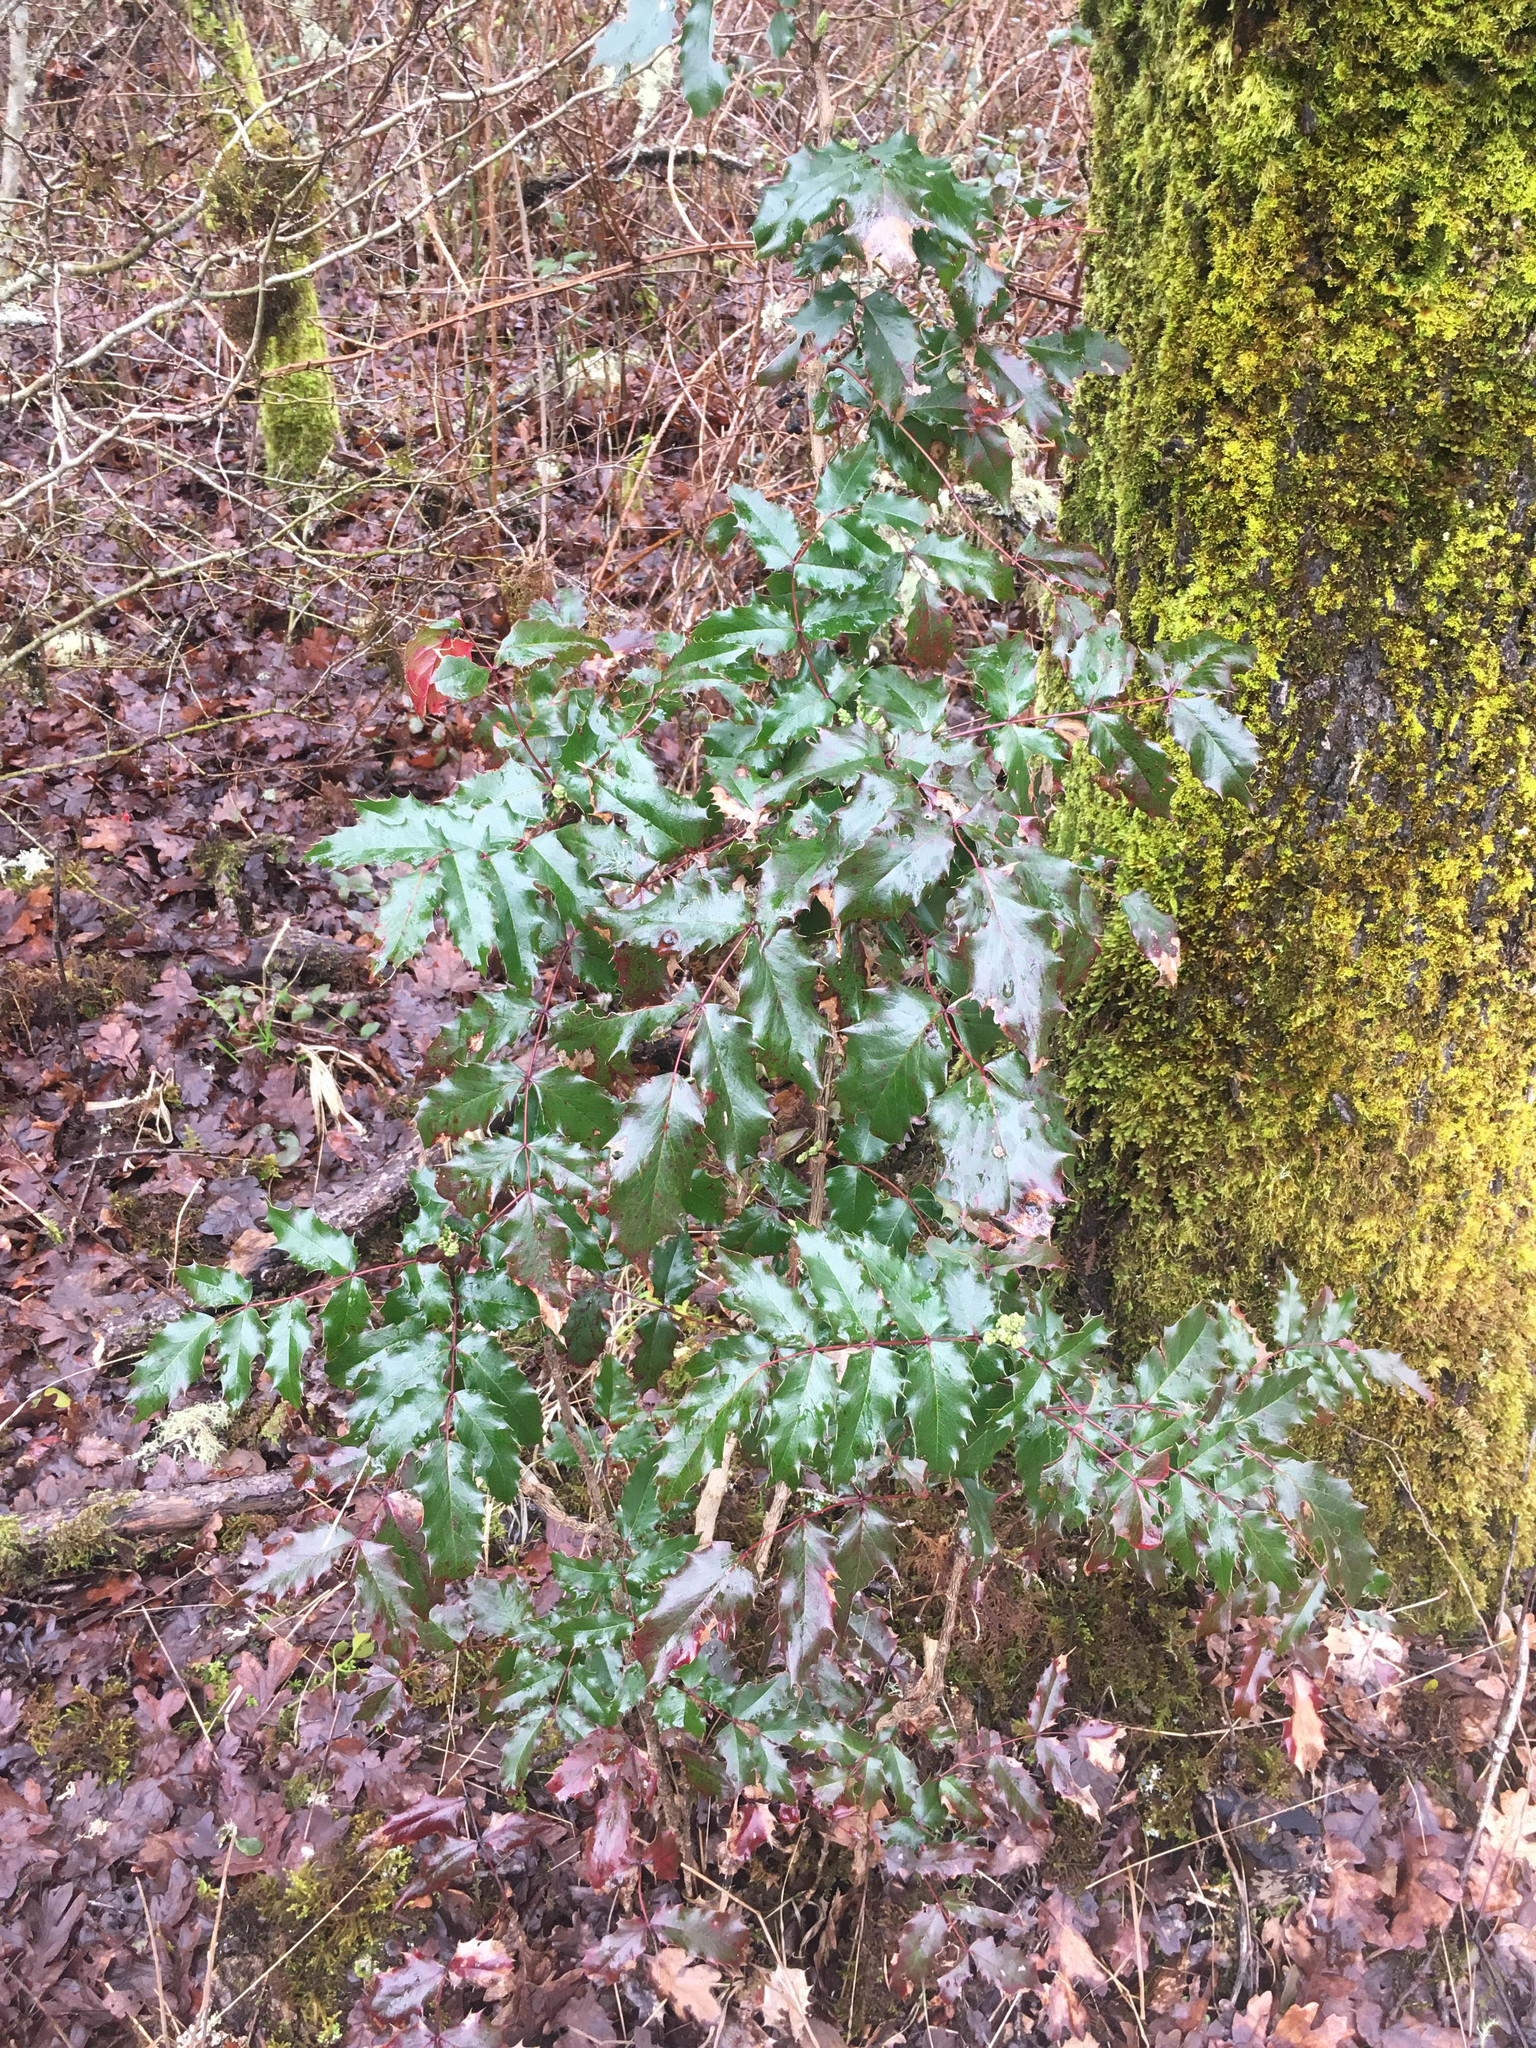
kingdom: Plantae
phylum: Tracheophyta
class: Magnoliopsida
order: Ranunculales
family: Berberidaceae
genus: Mahonia
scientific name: Mahonia aquifolium
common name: Oregon-grape
